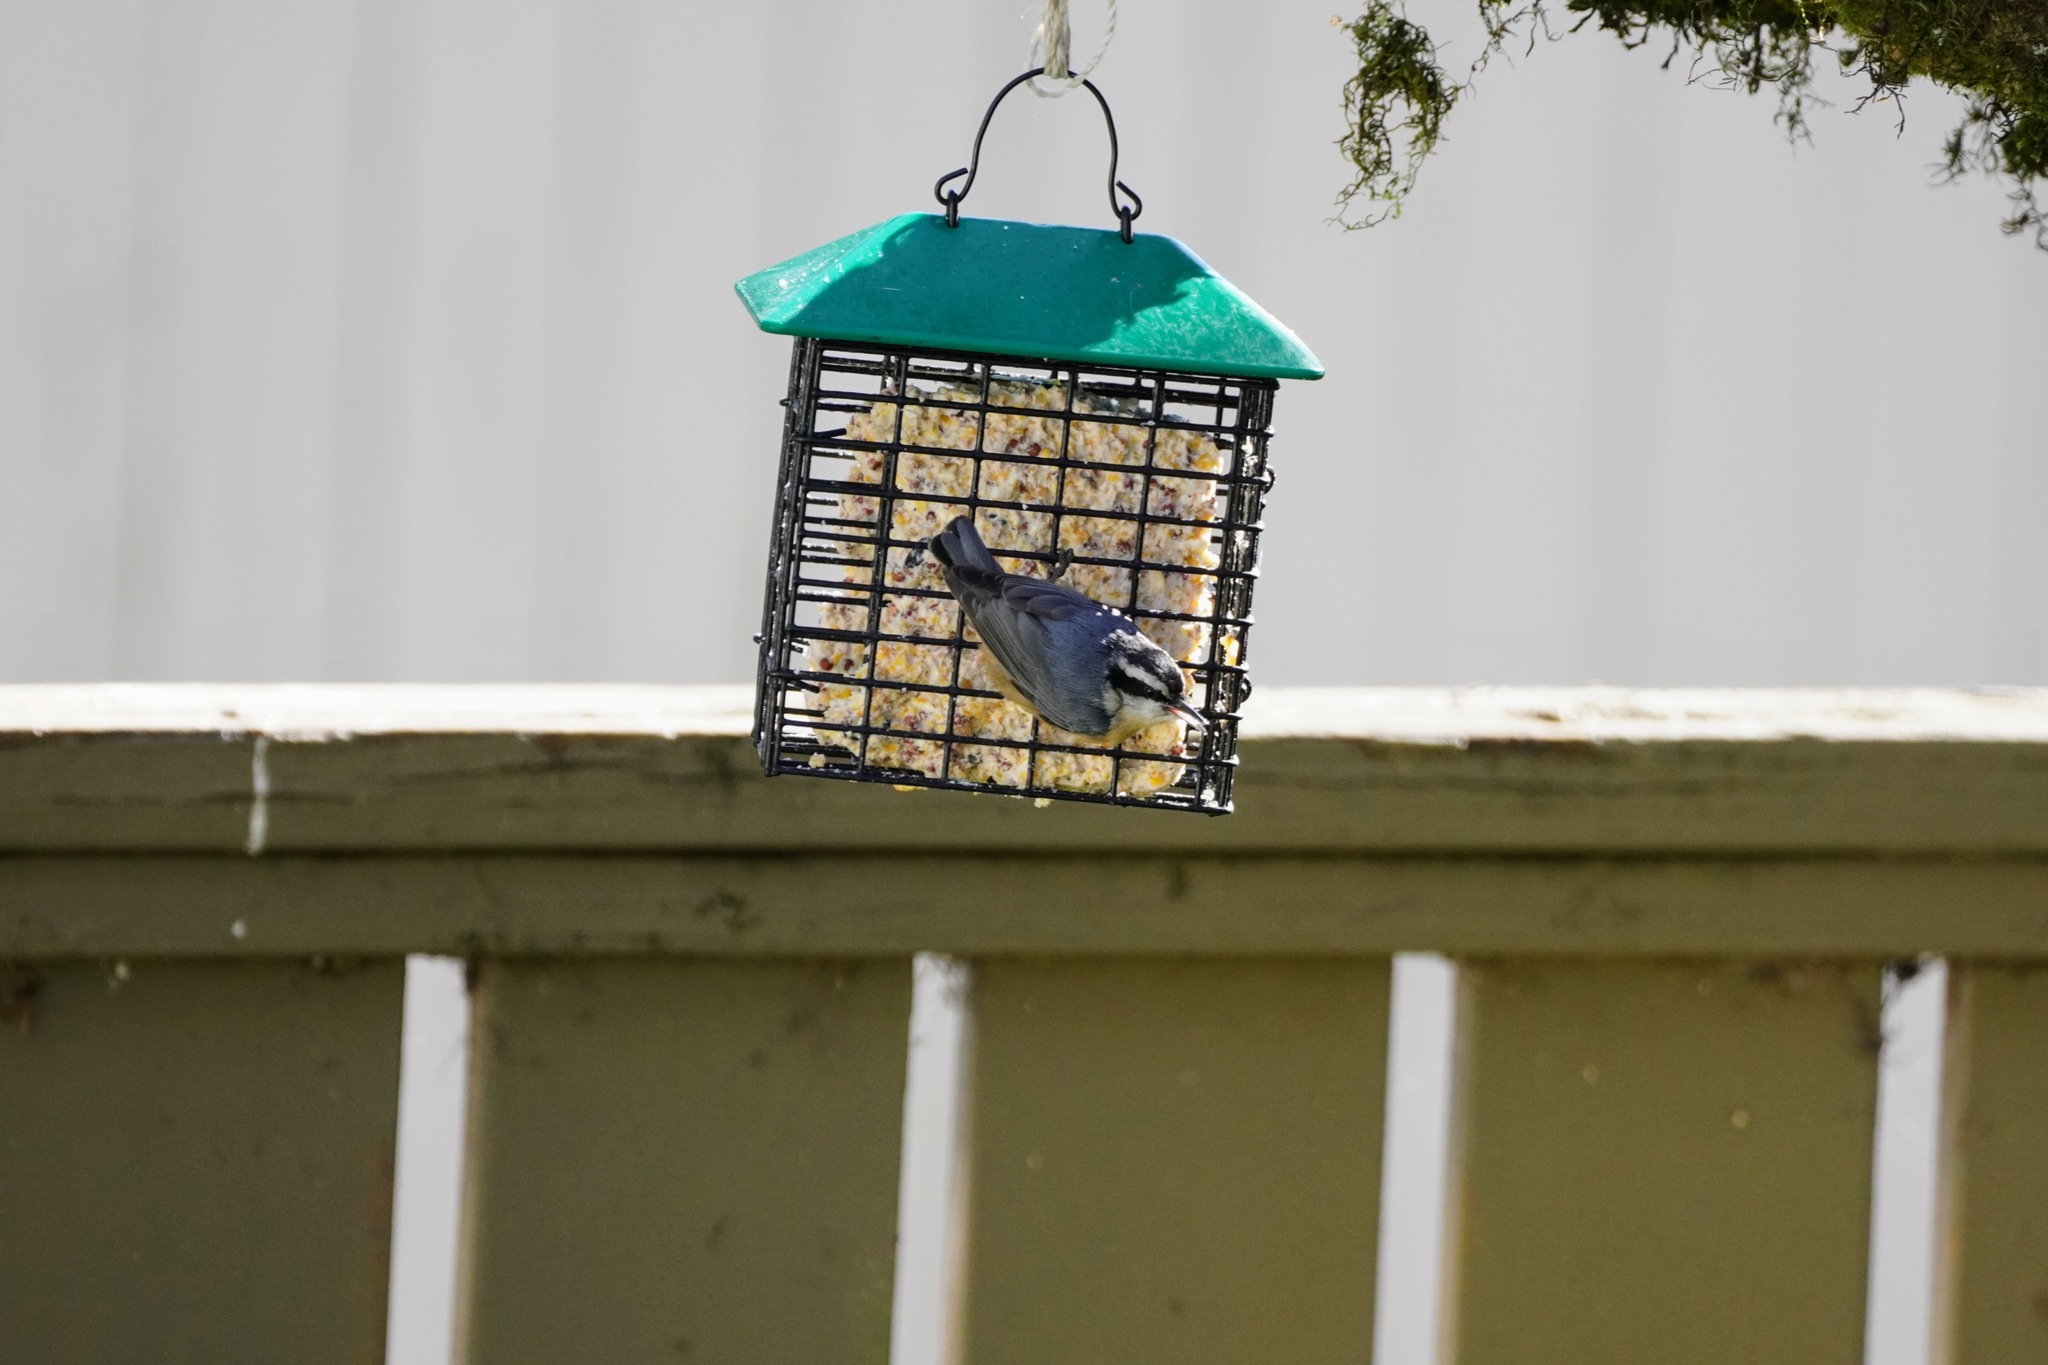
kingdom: Animalia
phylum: Chordata
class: Aves
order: Passeriformes
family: Sittidae
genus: Sitta
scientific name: Sitta canadensis
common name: Red-breasted nuthatch
